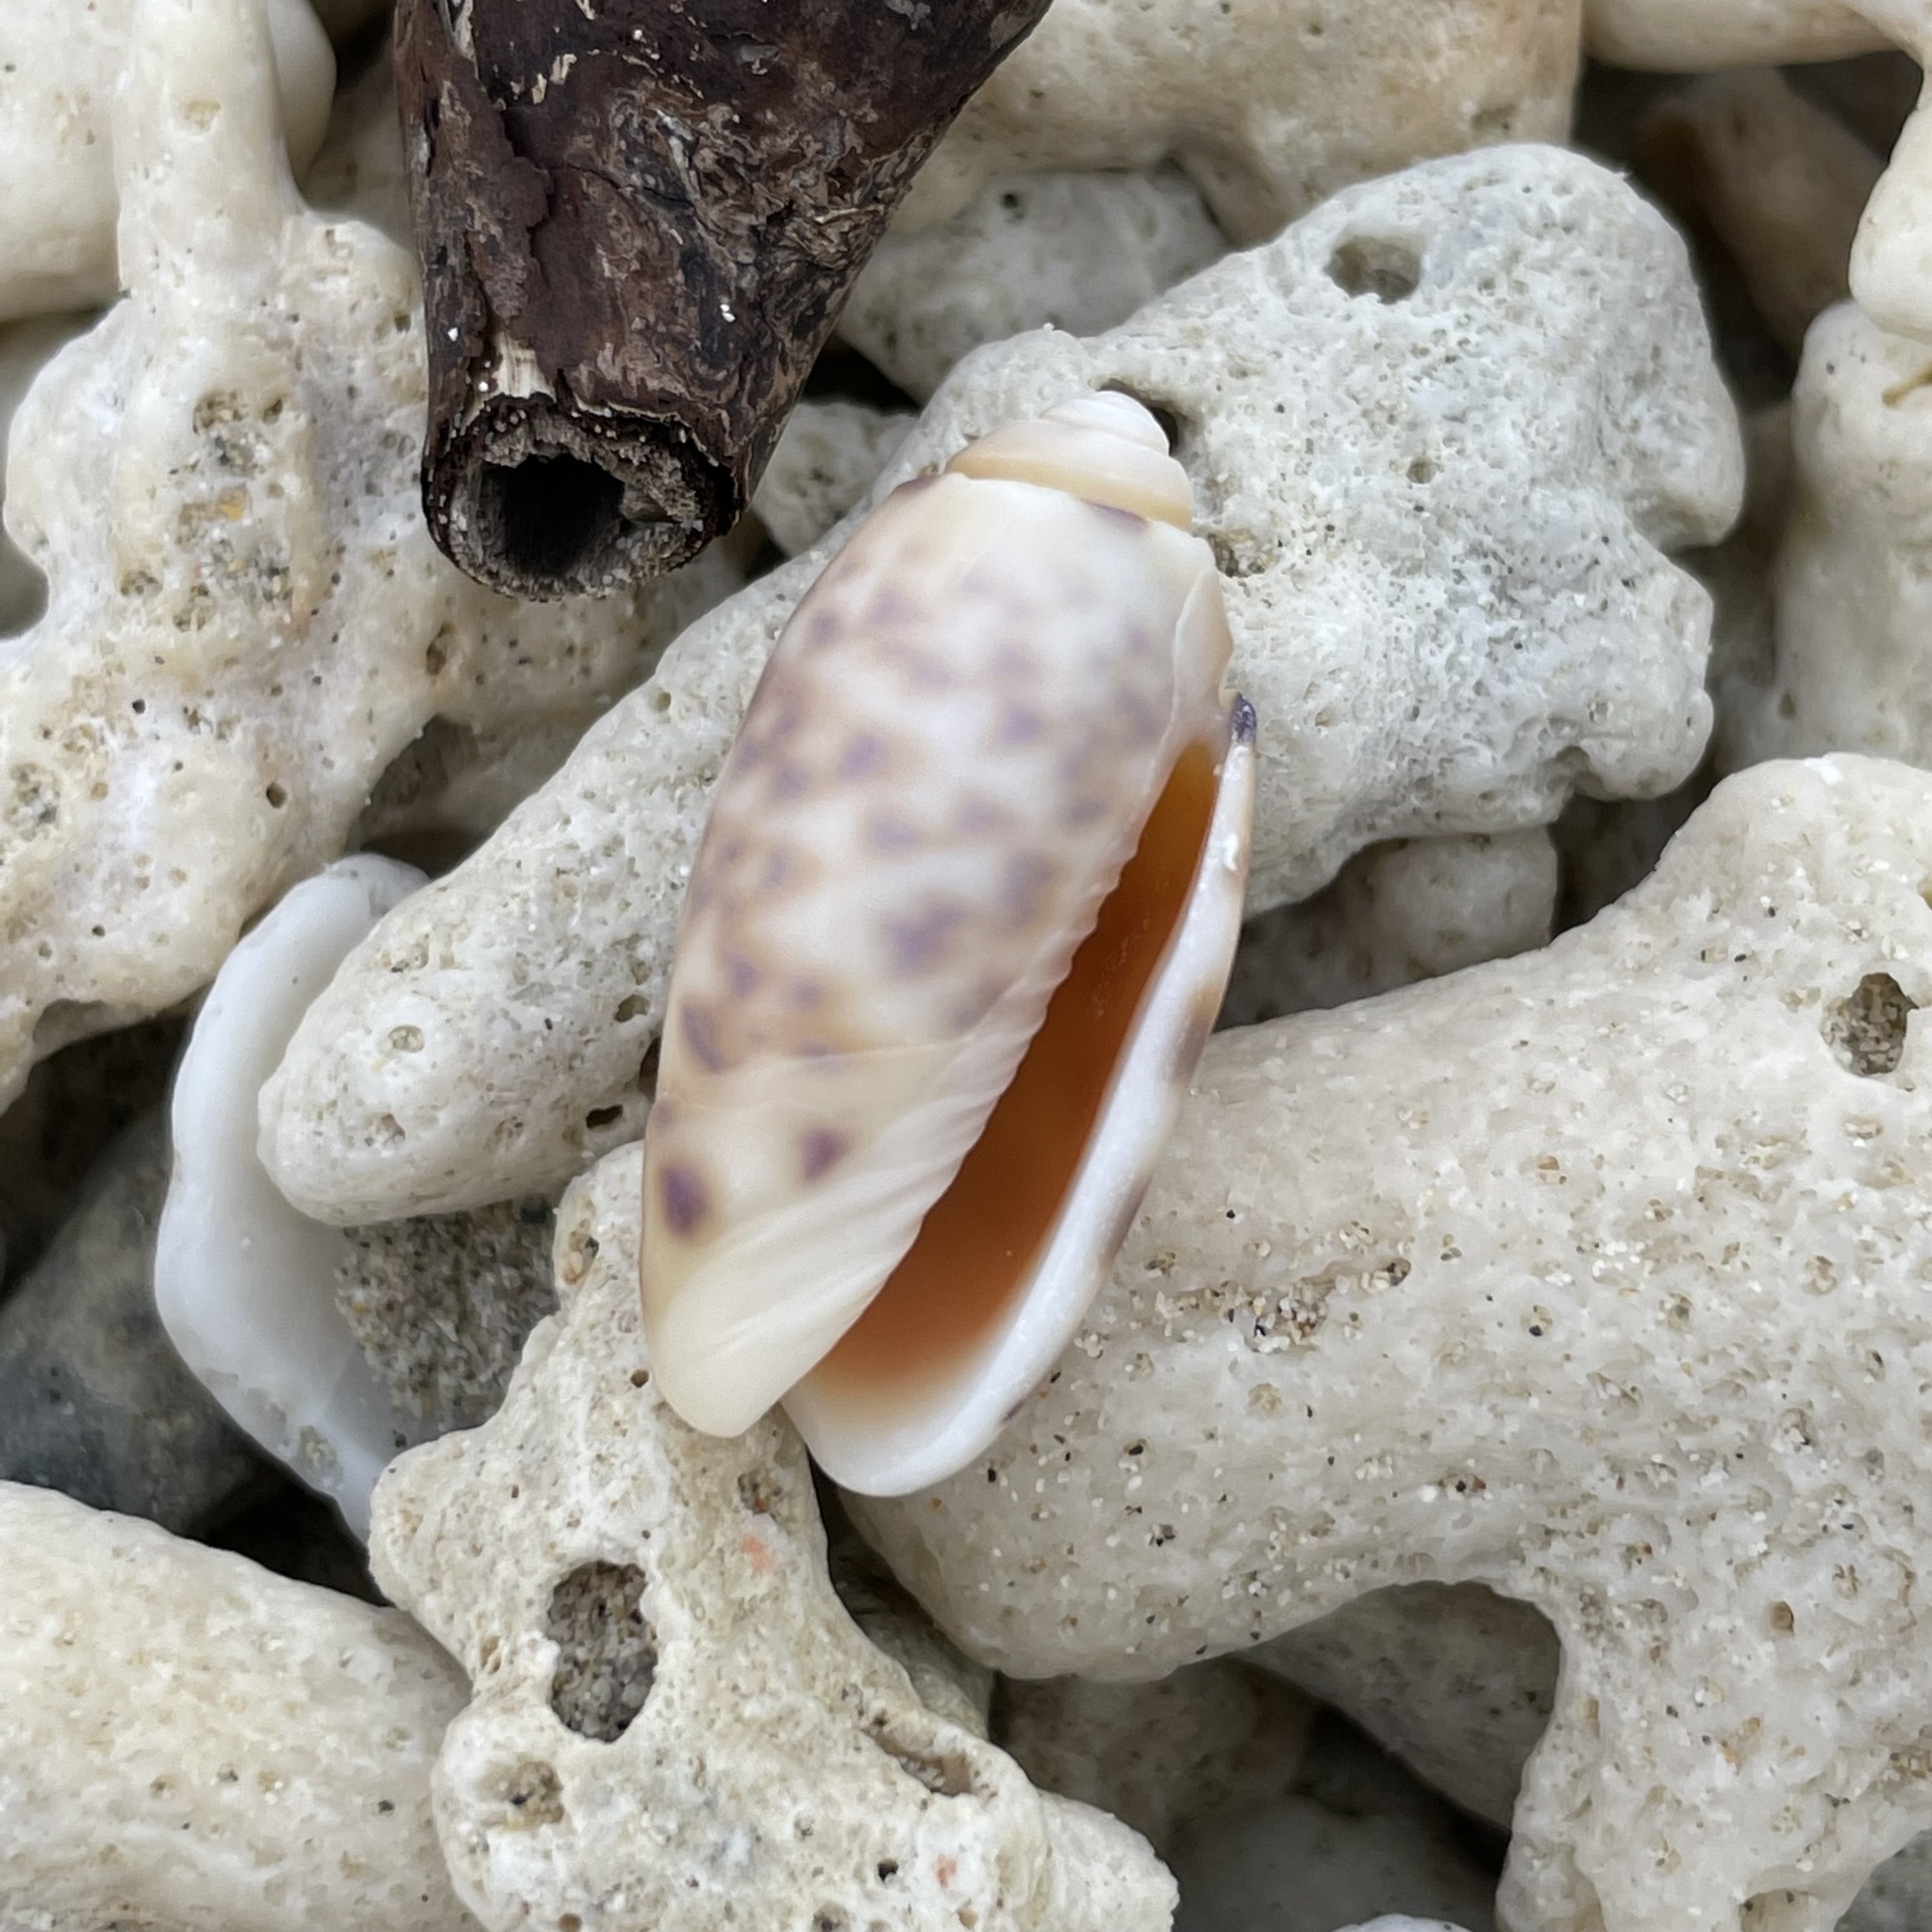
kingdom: Animalia
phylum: Mollusca
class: Gastropoda
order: Neogastropoda
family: Olividae
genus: Oliva
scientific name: Oliva amethystina
